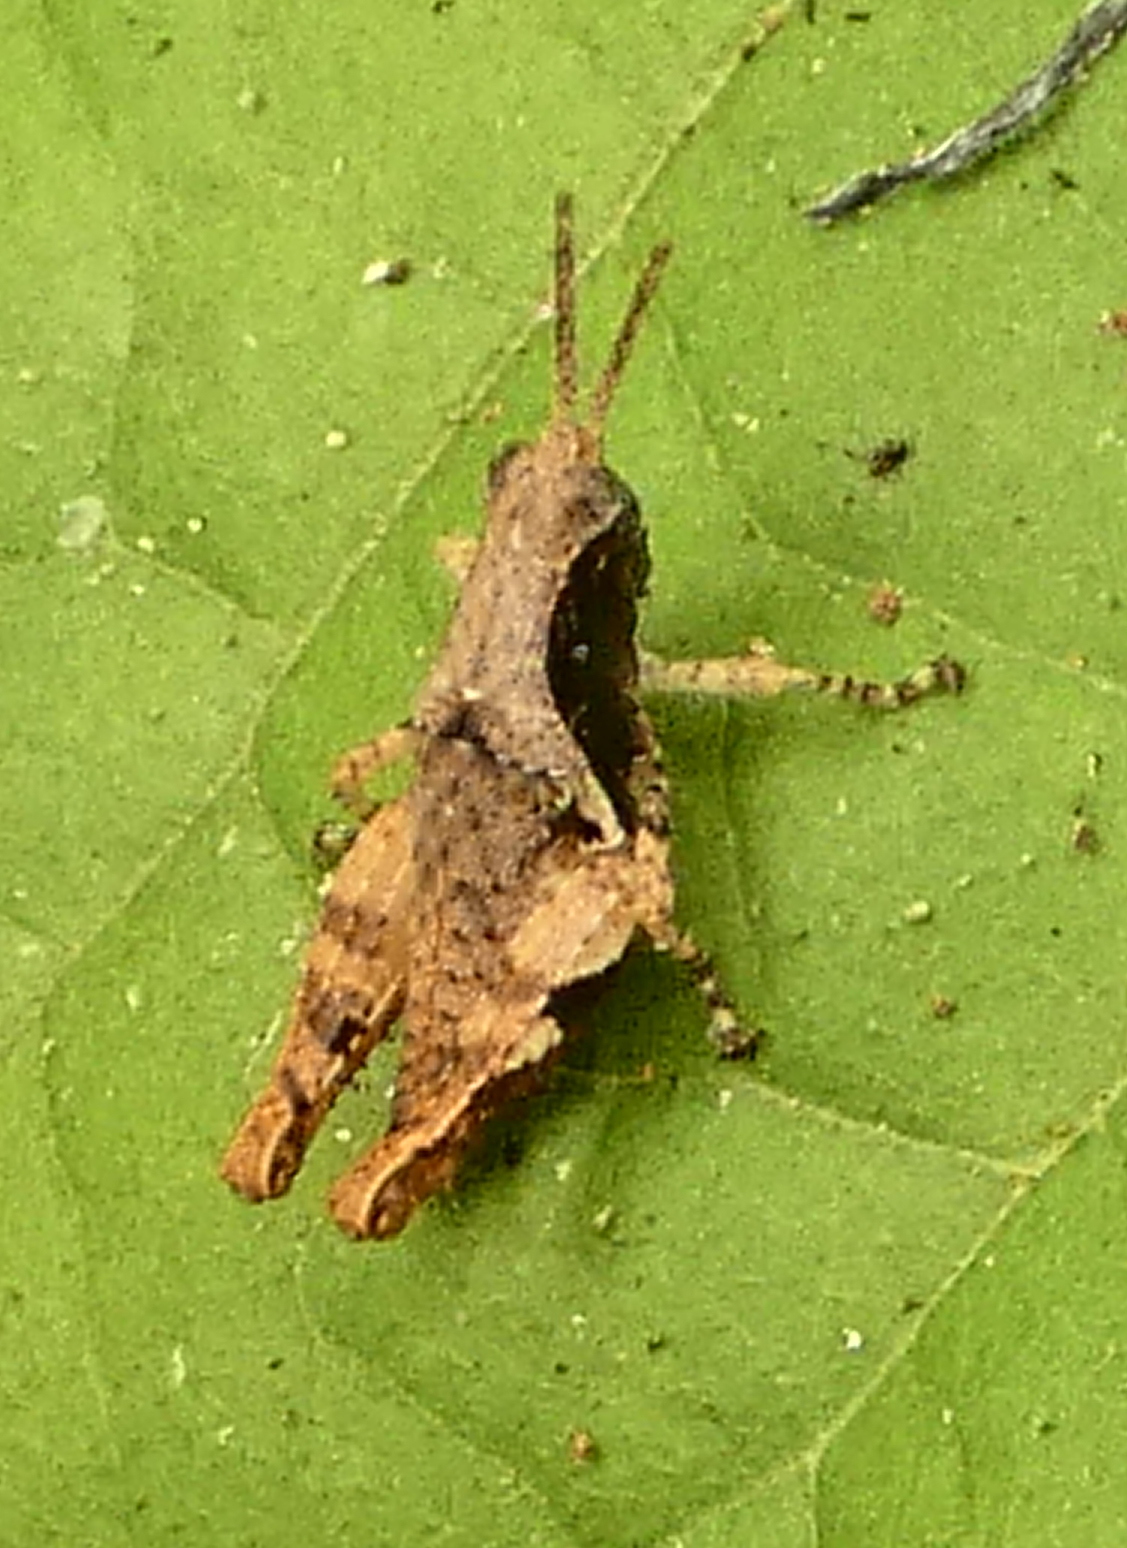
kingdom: Animalia
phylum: Arthropoda
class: Insecta
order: Orthoptera
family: Acrididae
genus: Eujivarus
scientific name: Eujivarus meridionalis
